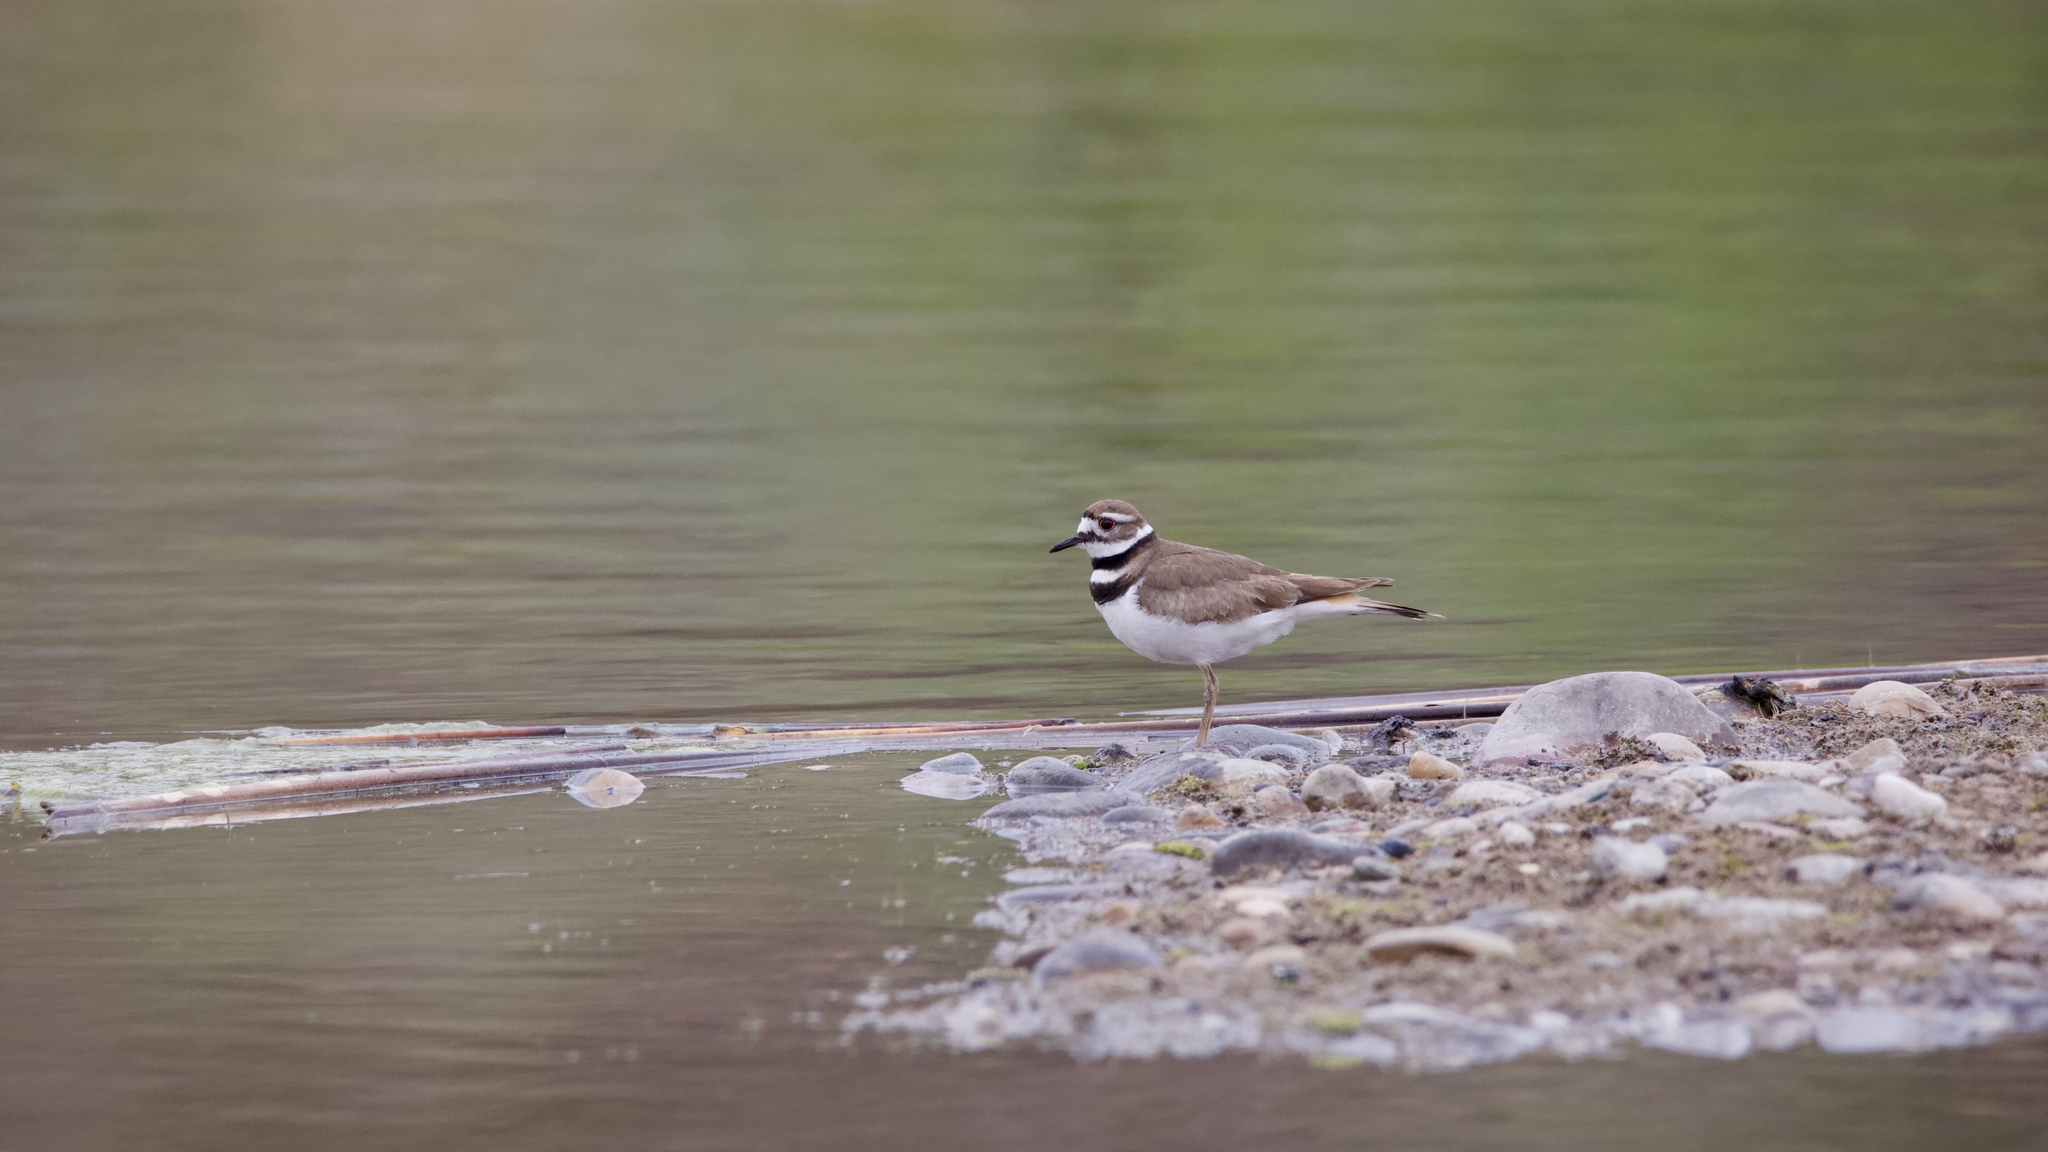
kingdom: Animalia
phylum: Chordata
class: Aves
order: Charadriiformes
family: Charadriidae
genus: Charadrius
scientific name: Charadrius vociferus
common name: Killdeer
